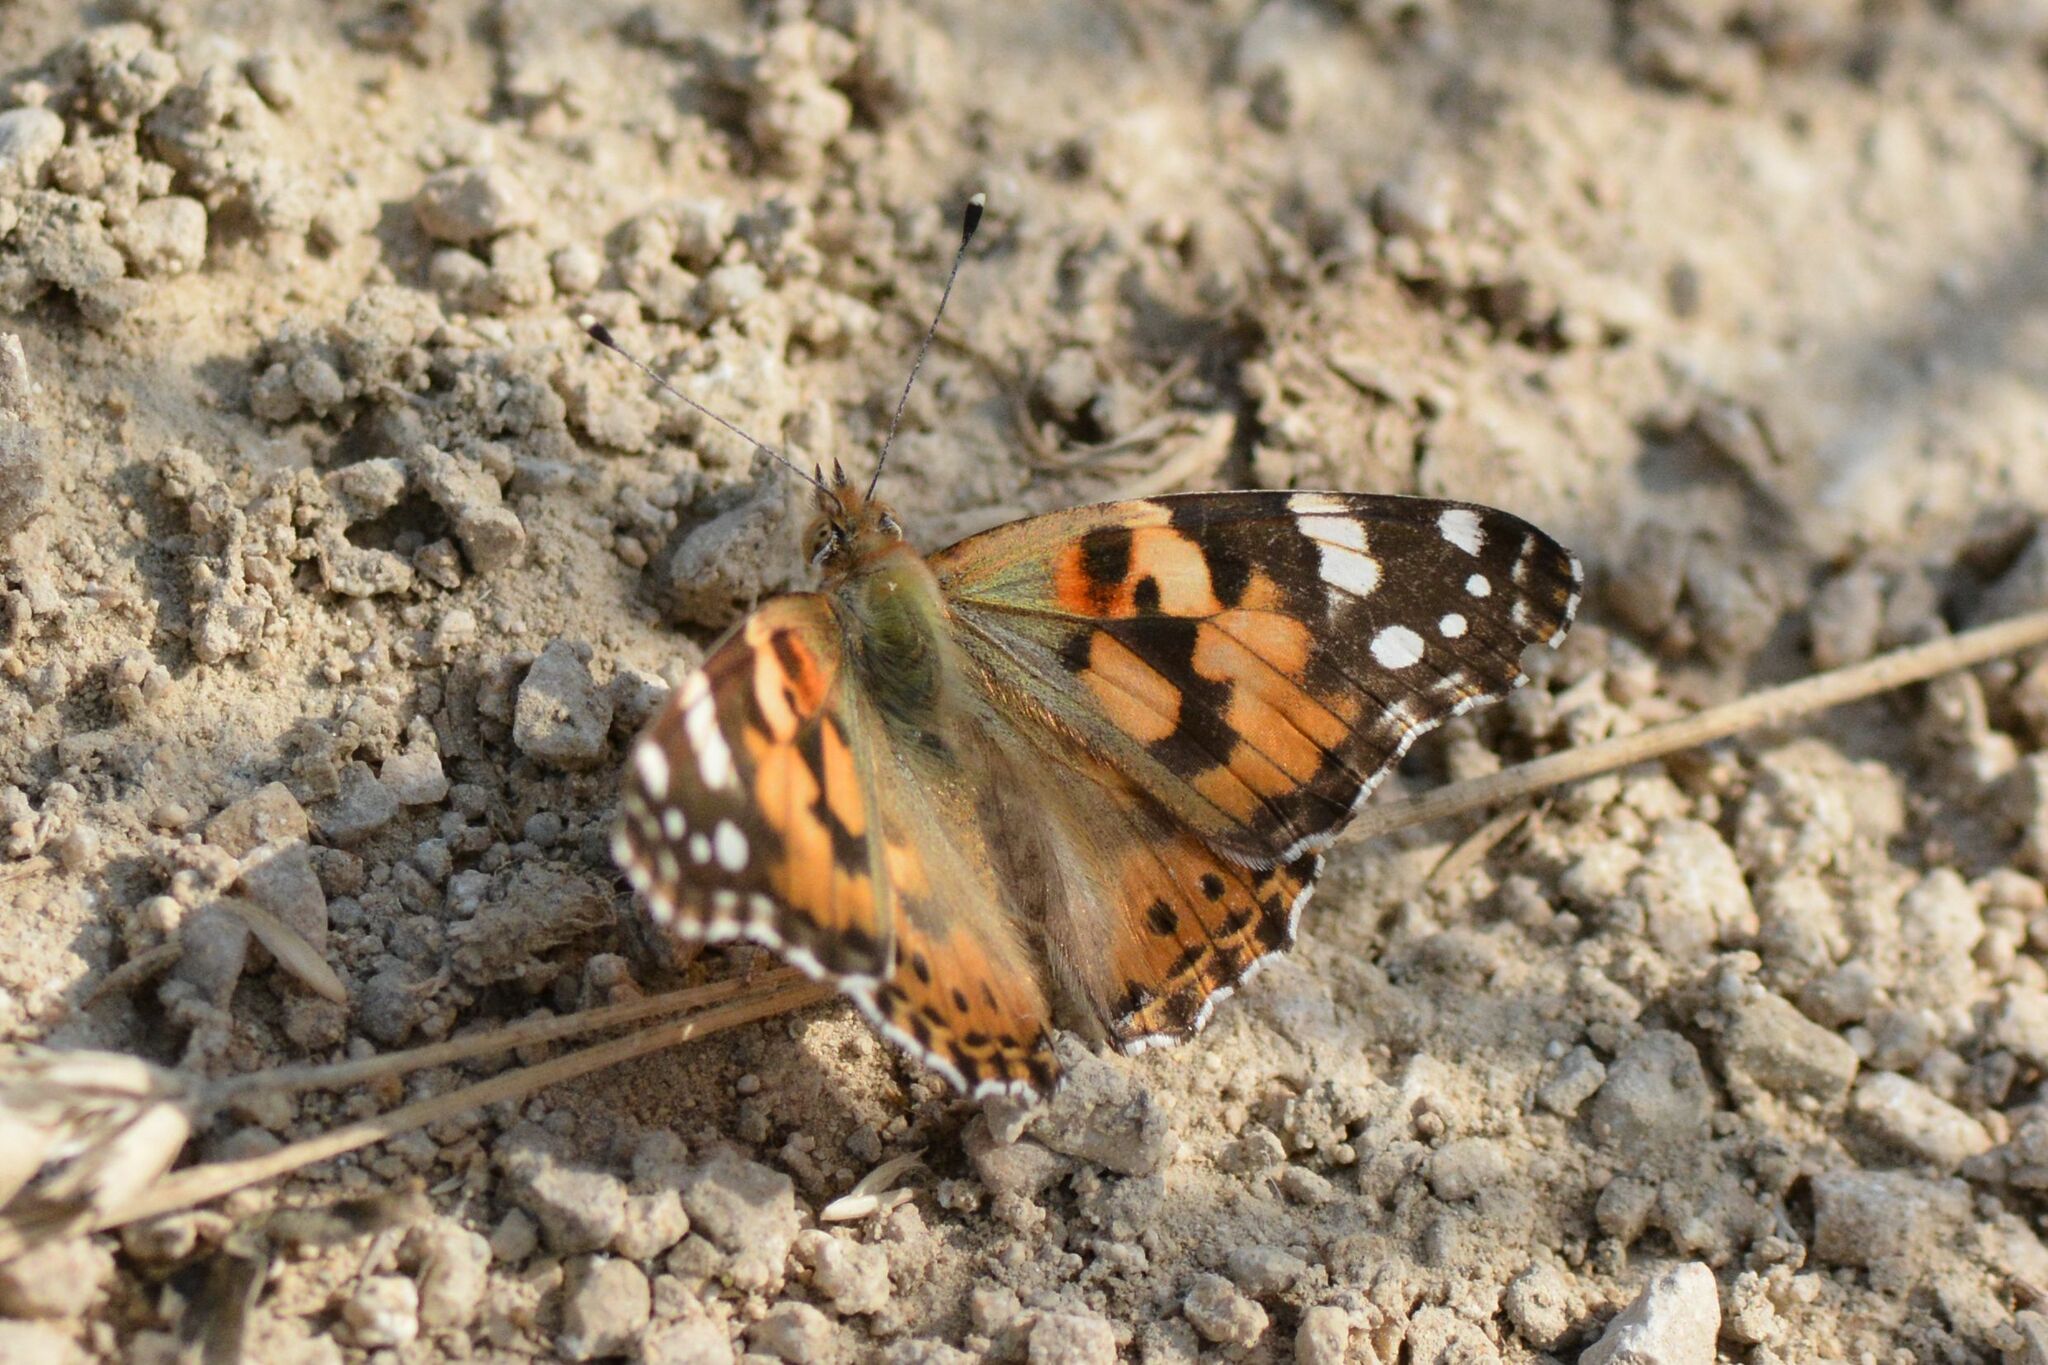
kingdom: Animalia
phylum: Arthropoda
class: Insecta
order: Lepidoptera
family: Nymphalidae
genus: Vanessa
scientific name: Vanessa cardui
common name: Painted lady
